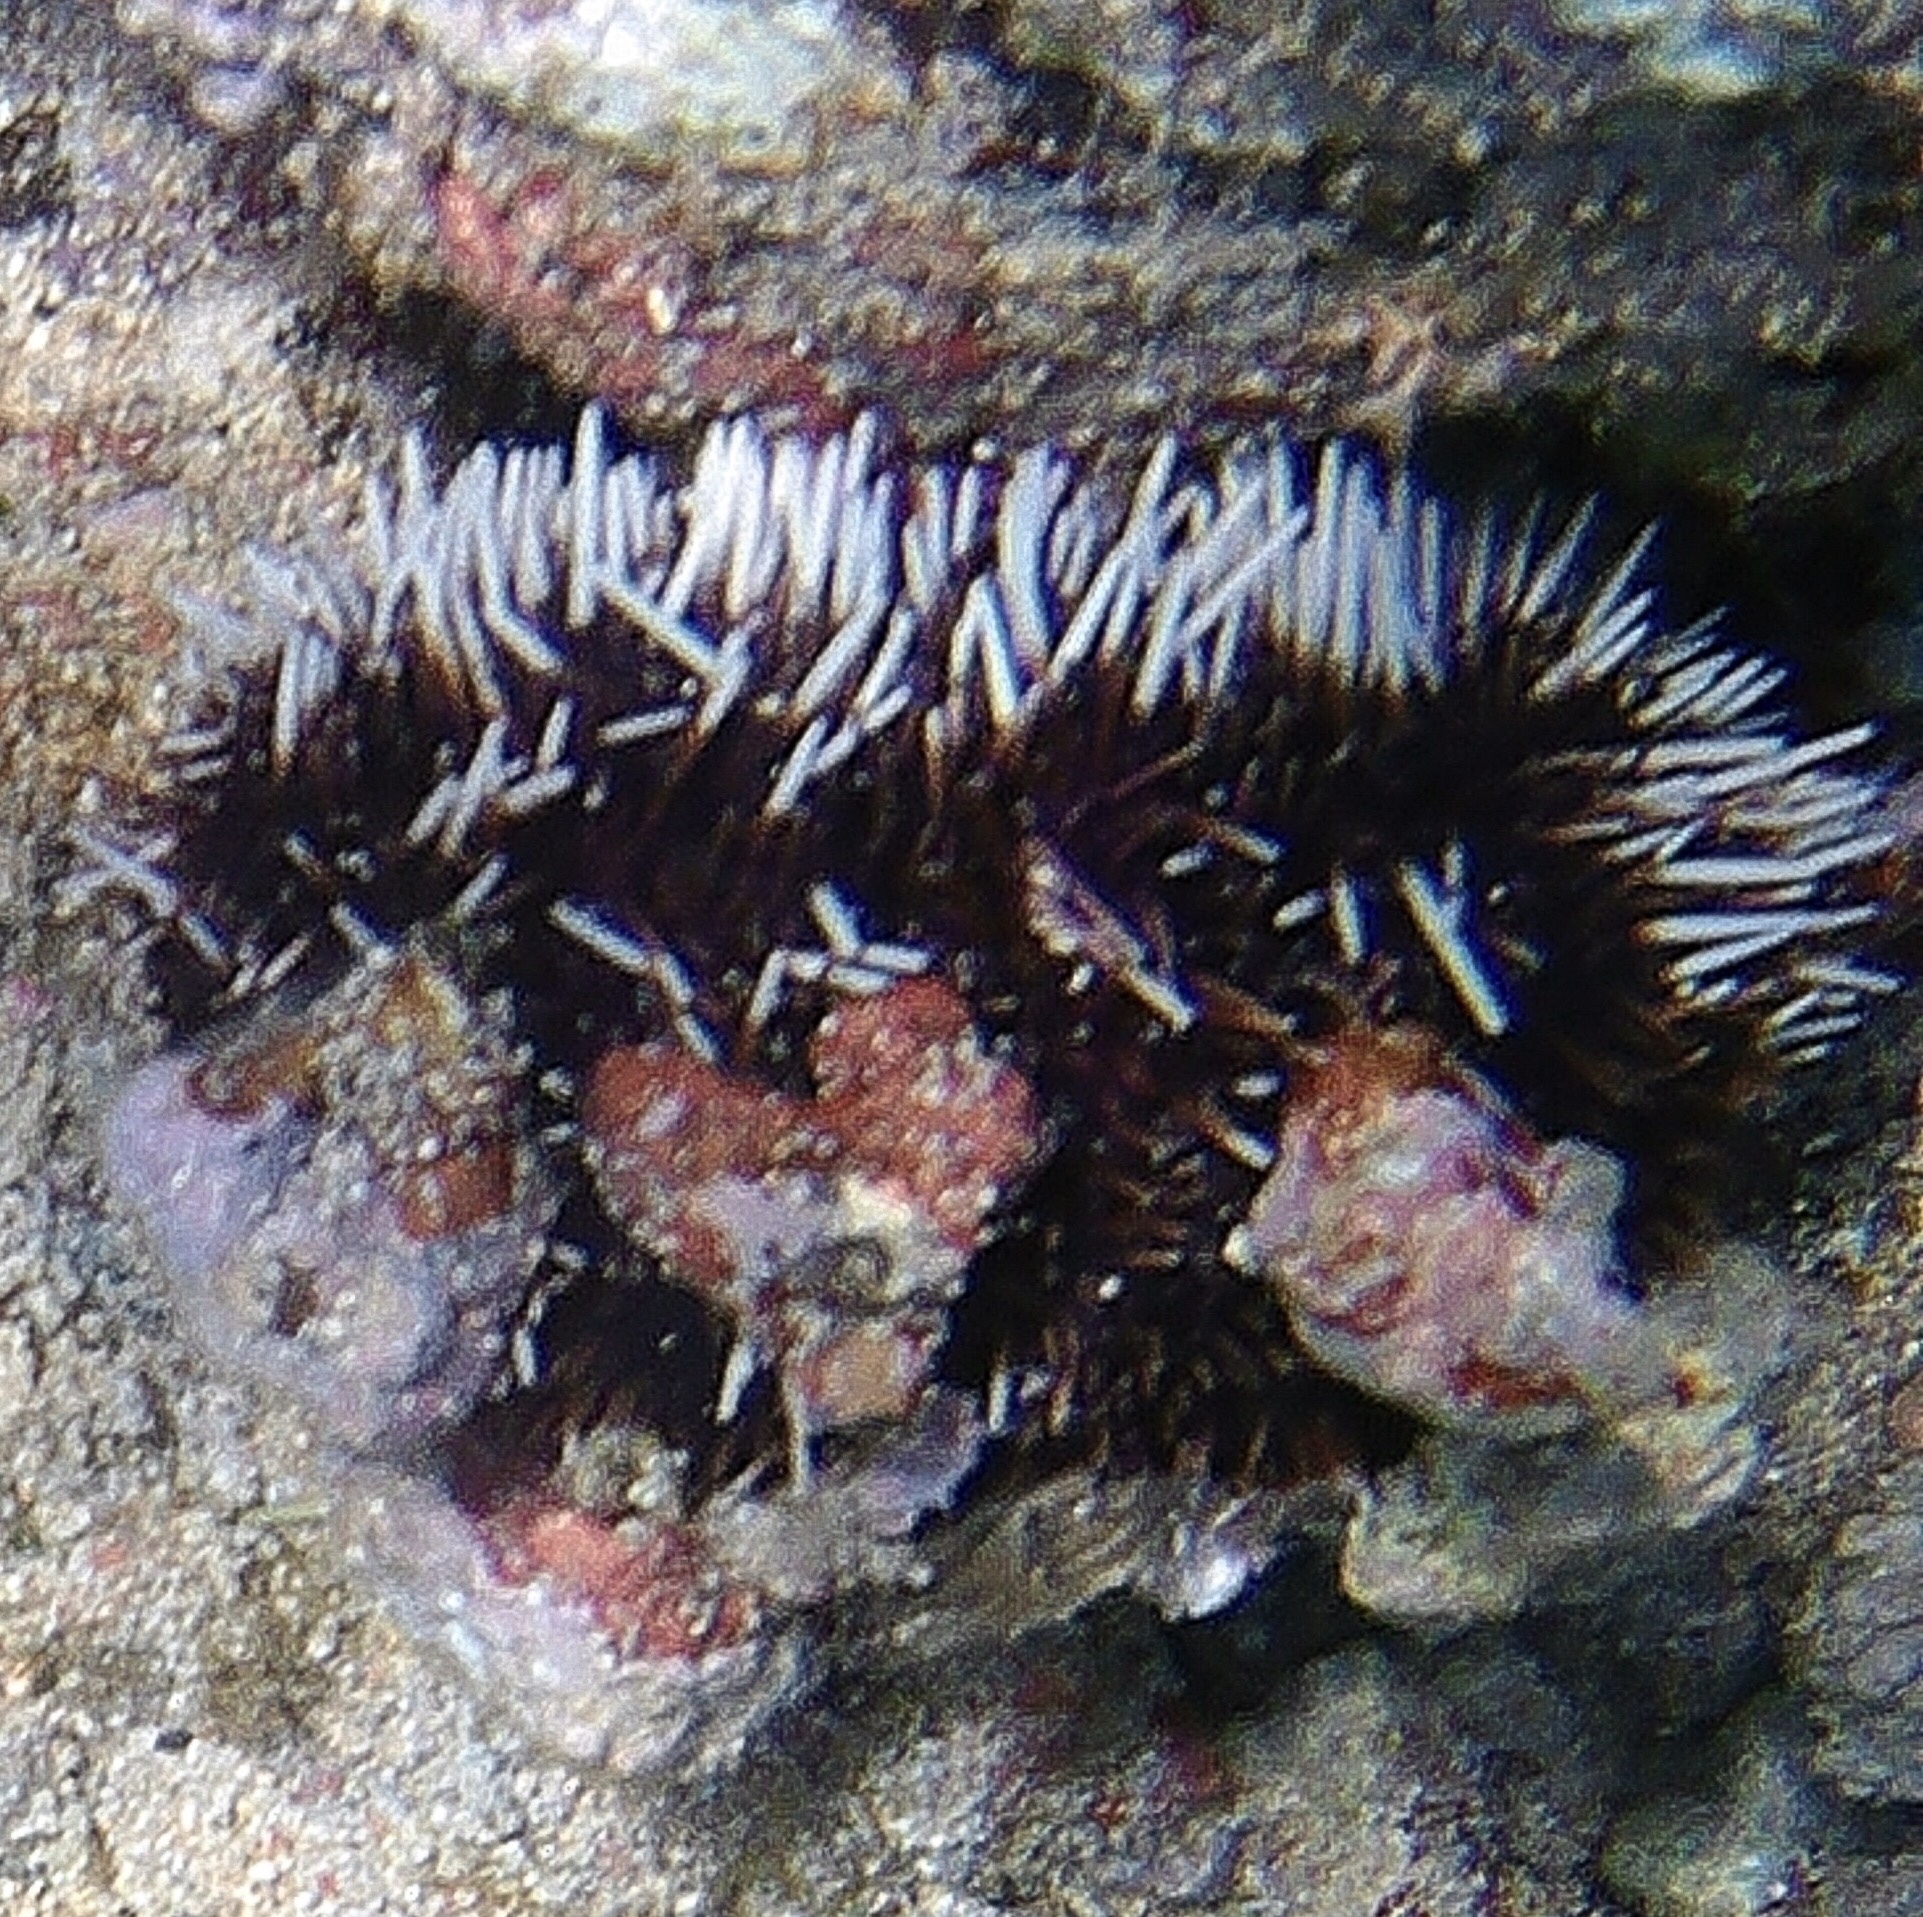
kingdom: Animalia
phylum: Echinodermata
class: Echinoidea
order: Camarodonta
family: Toxopneustidae
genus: Tripneustes
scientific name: Tripneustes gratilla
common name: Bischofsmützenseeigel
